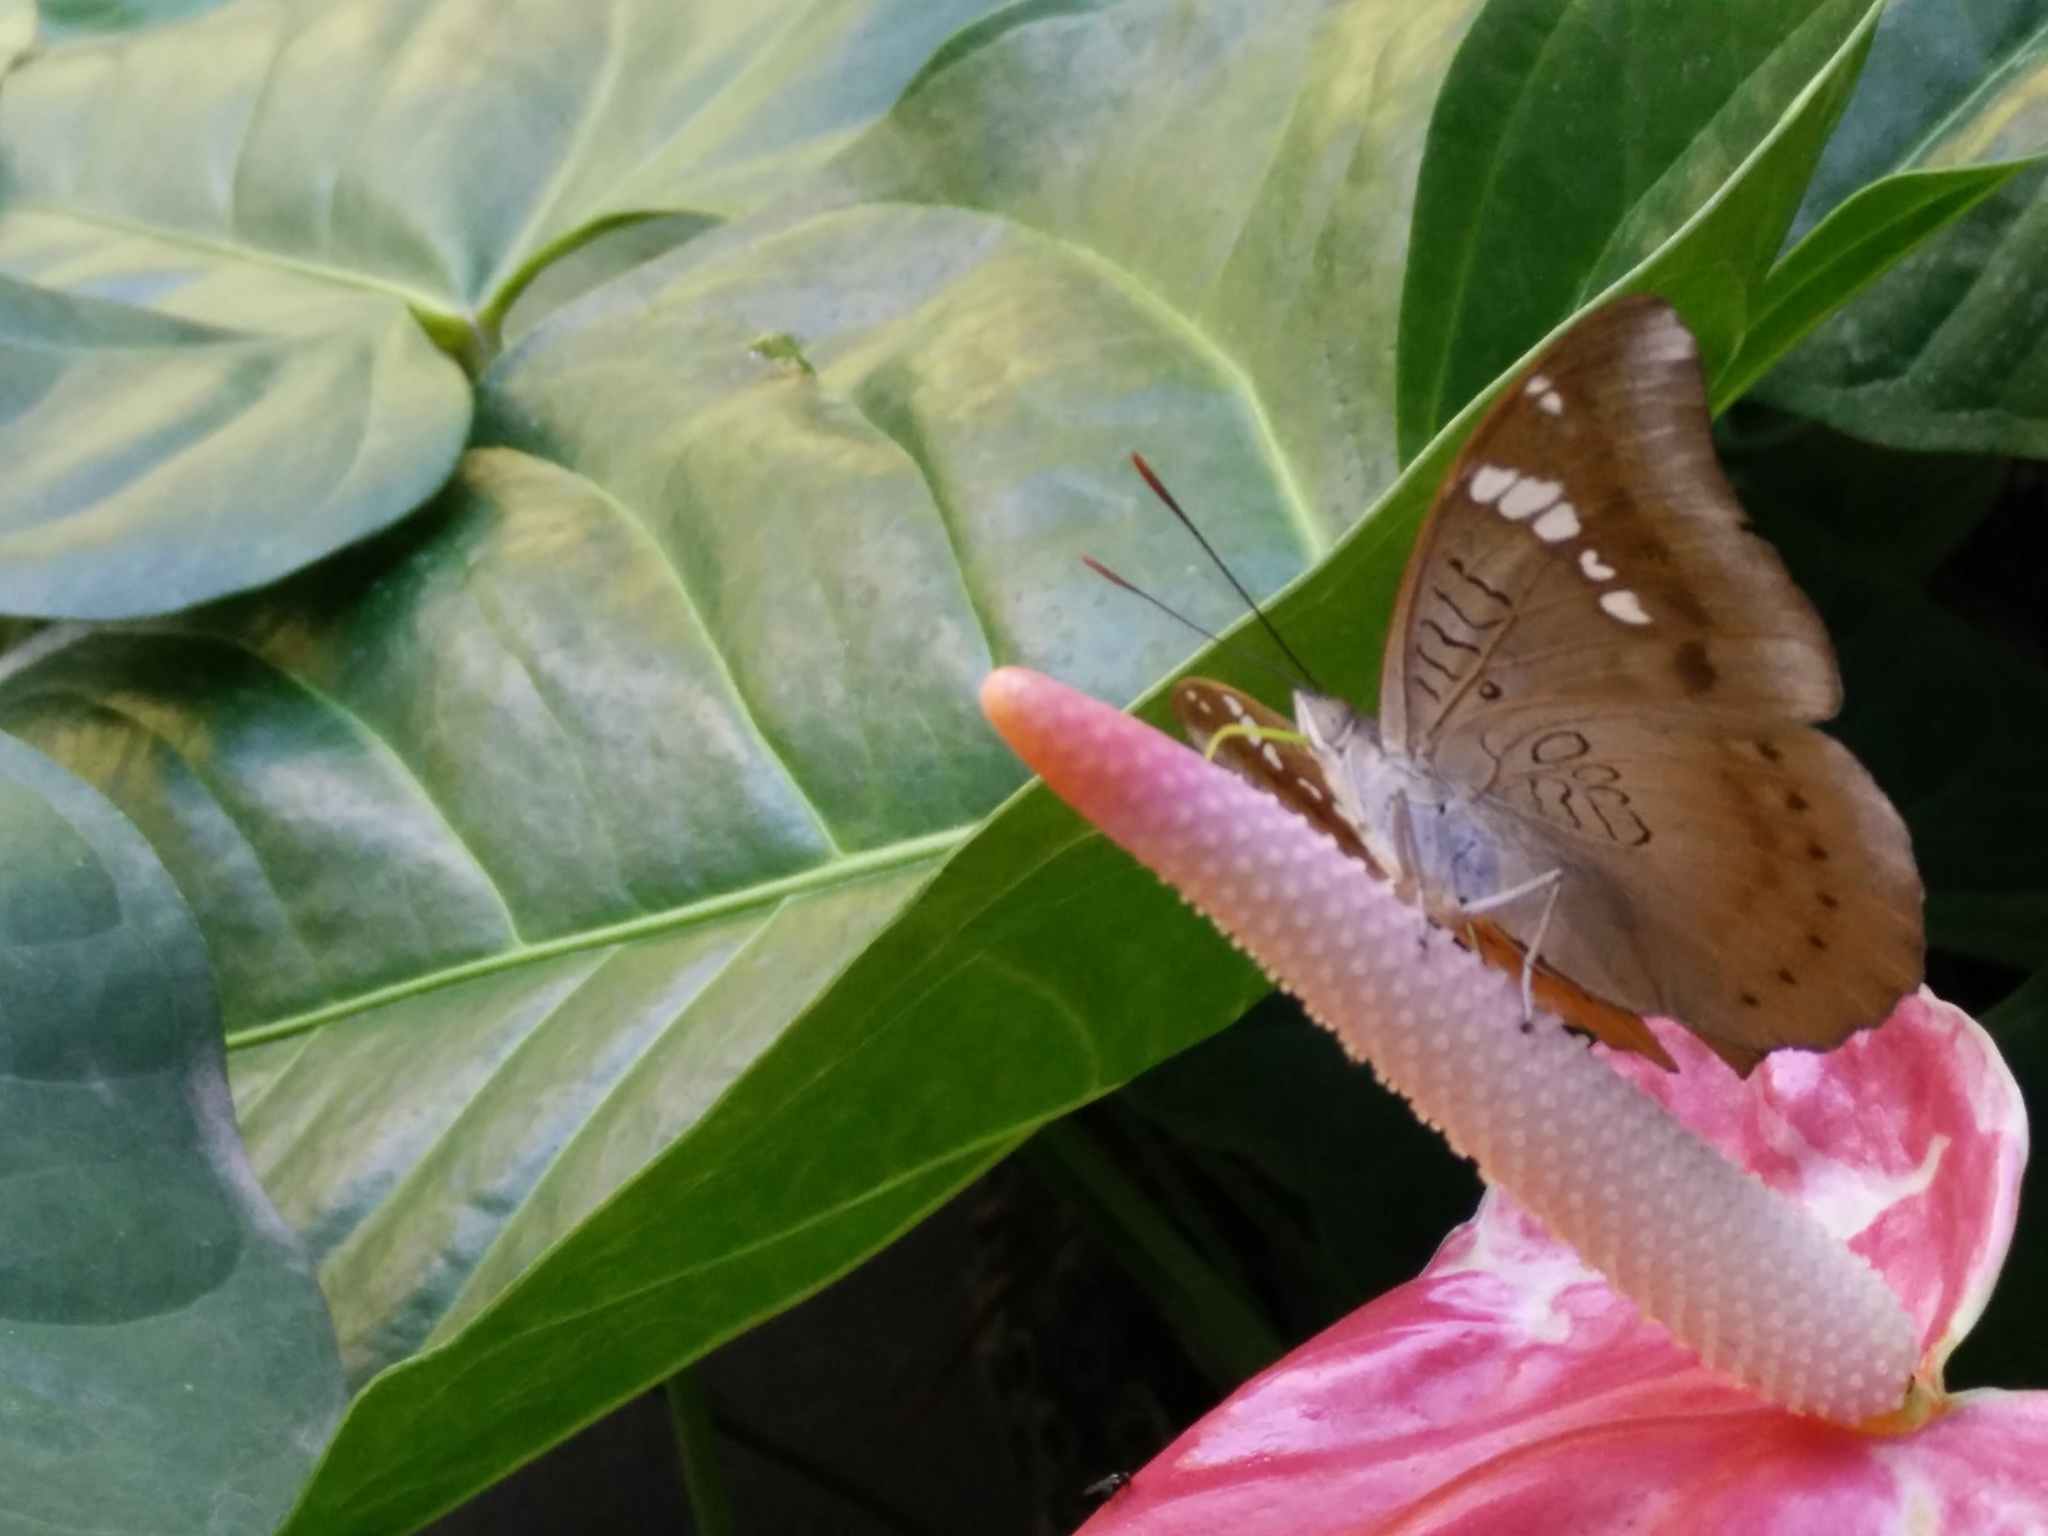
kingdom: Animalia
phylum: Arthropoda
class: Insecta
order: Lepidoptera
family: Nymphalidae
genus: Euthalia
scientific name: Euthalia aconthea
